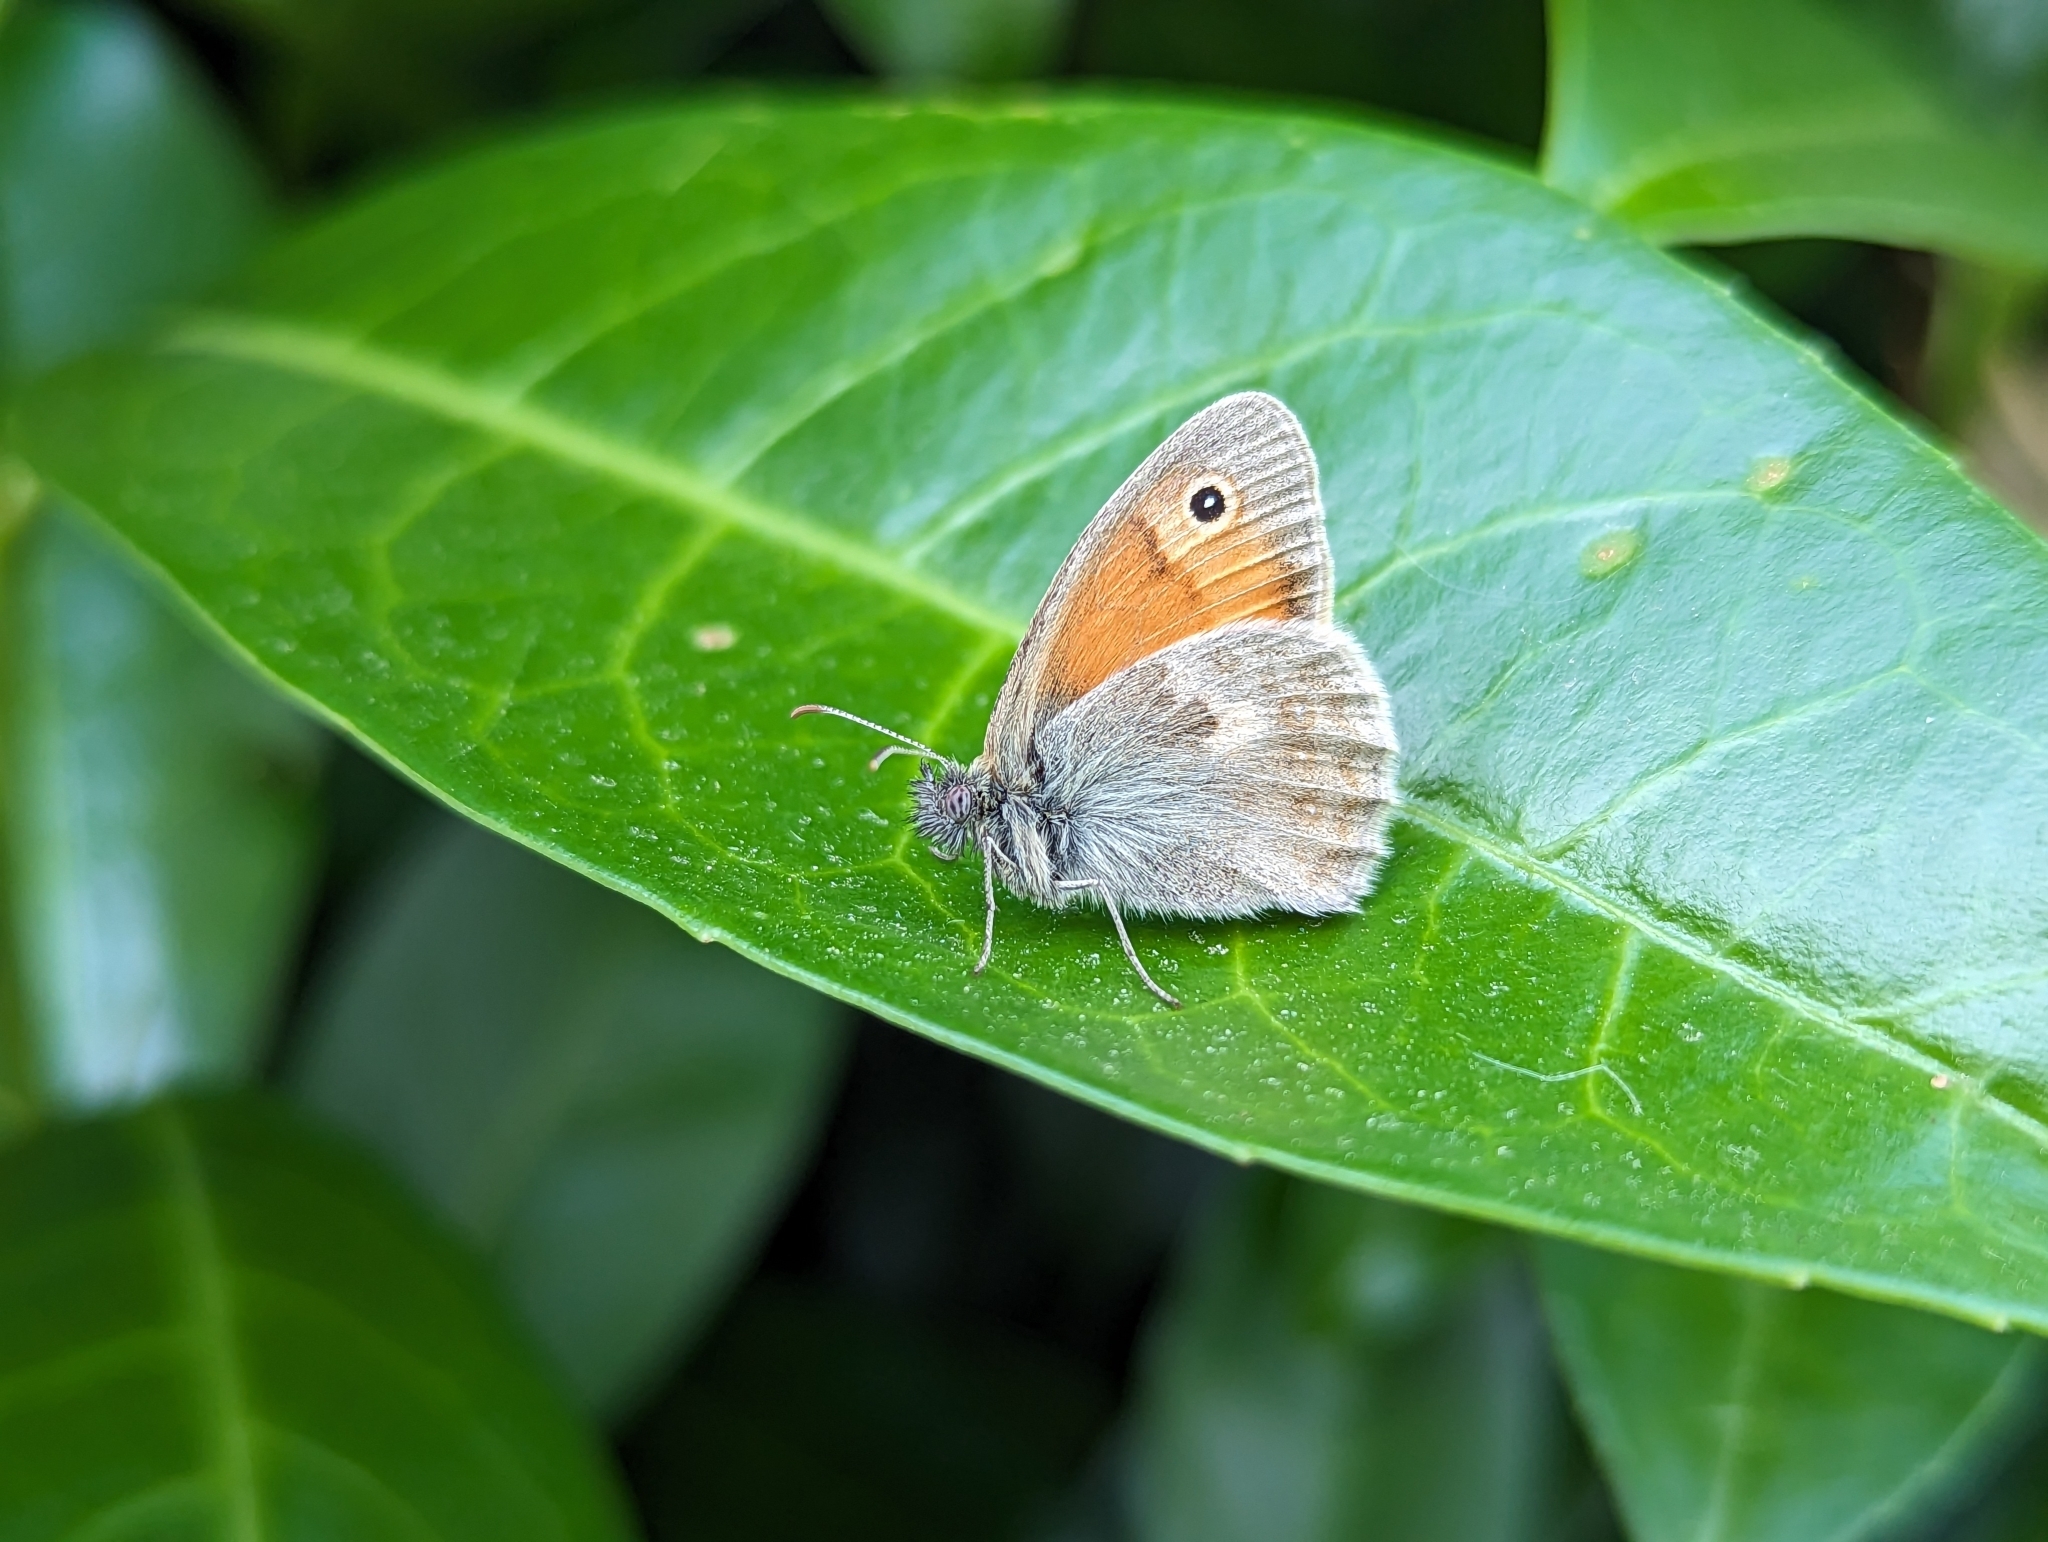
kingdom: Animalia
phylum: Arthropoda
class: Insecta
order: Lepidoptera
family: Nymphalidae
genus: Coenonympha
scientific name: Coenonympha pamphilus
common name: Small heath
